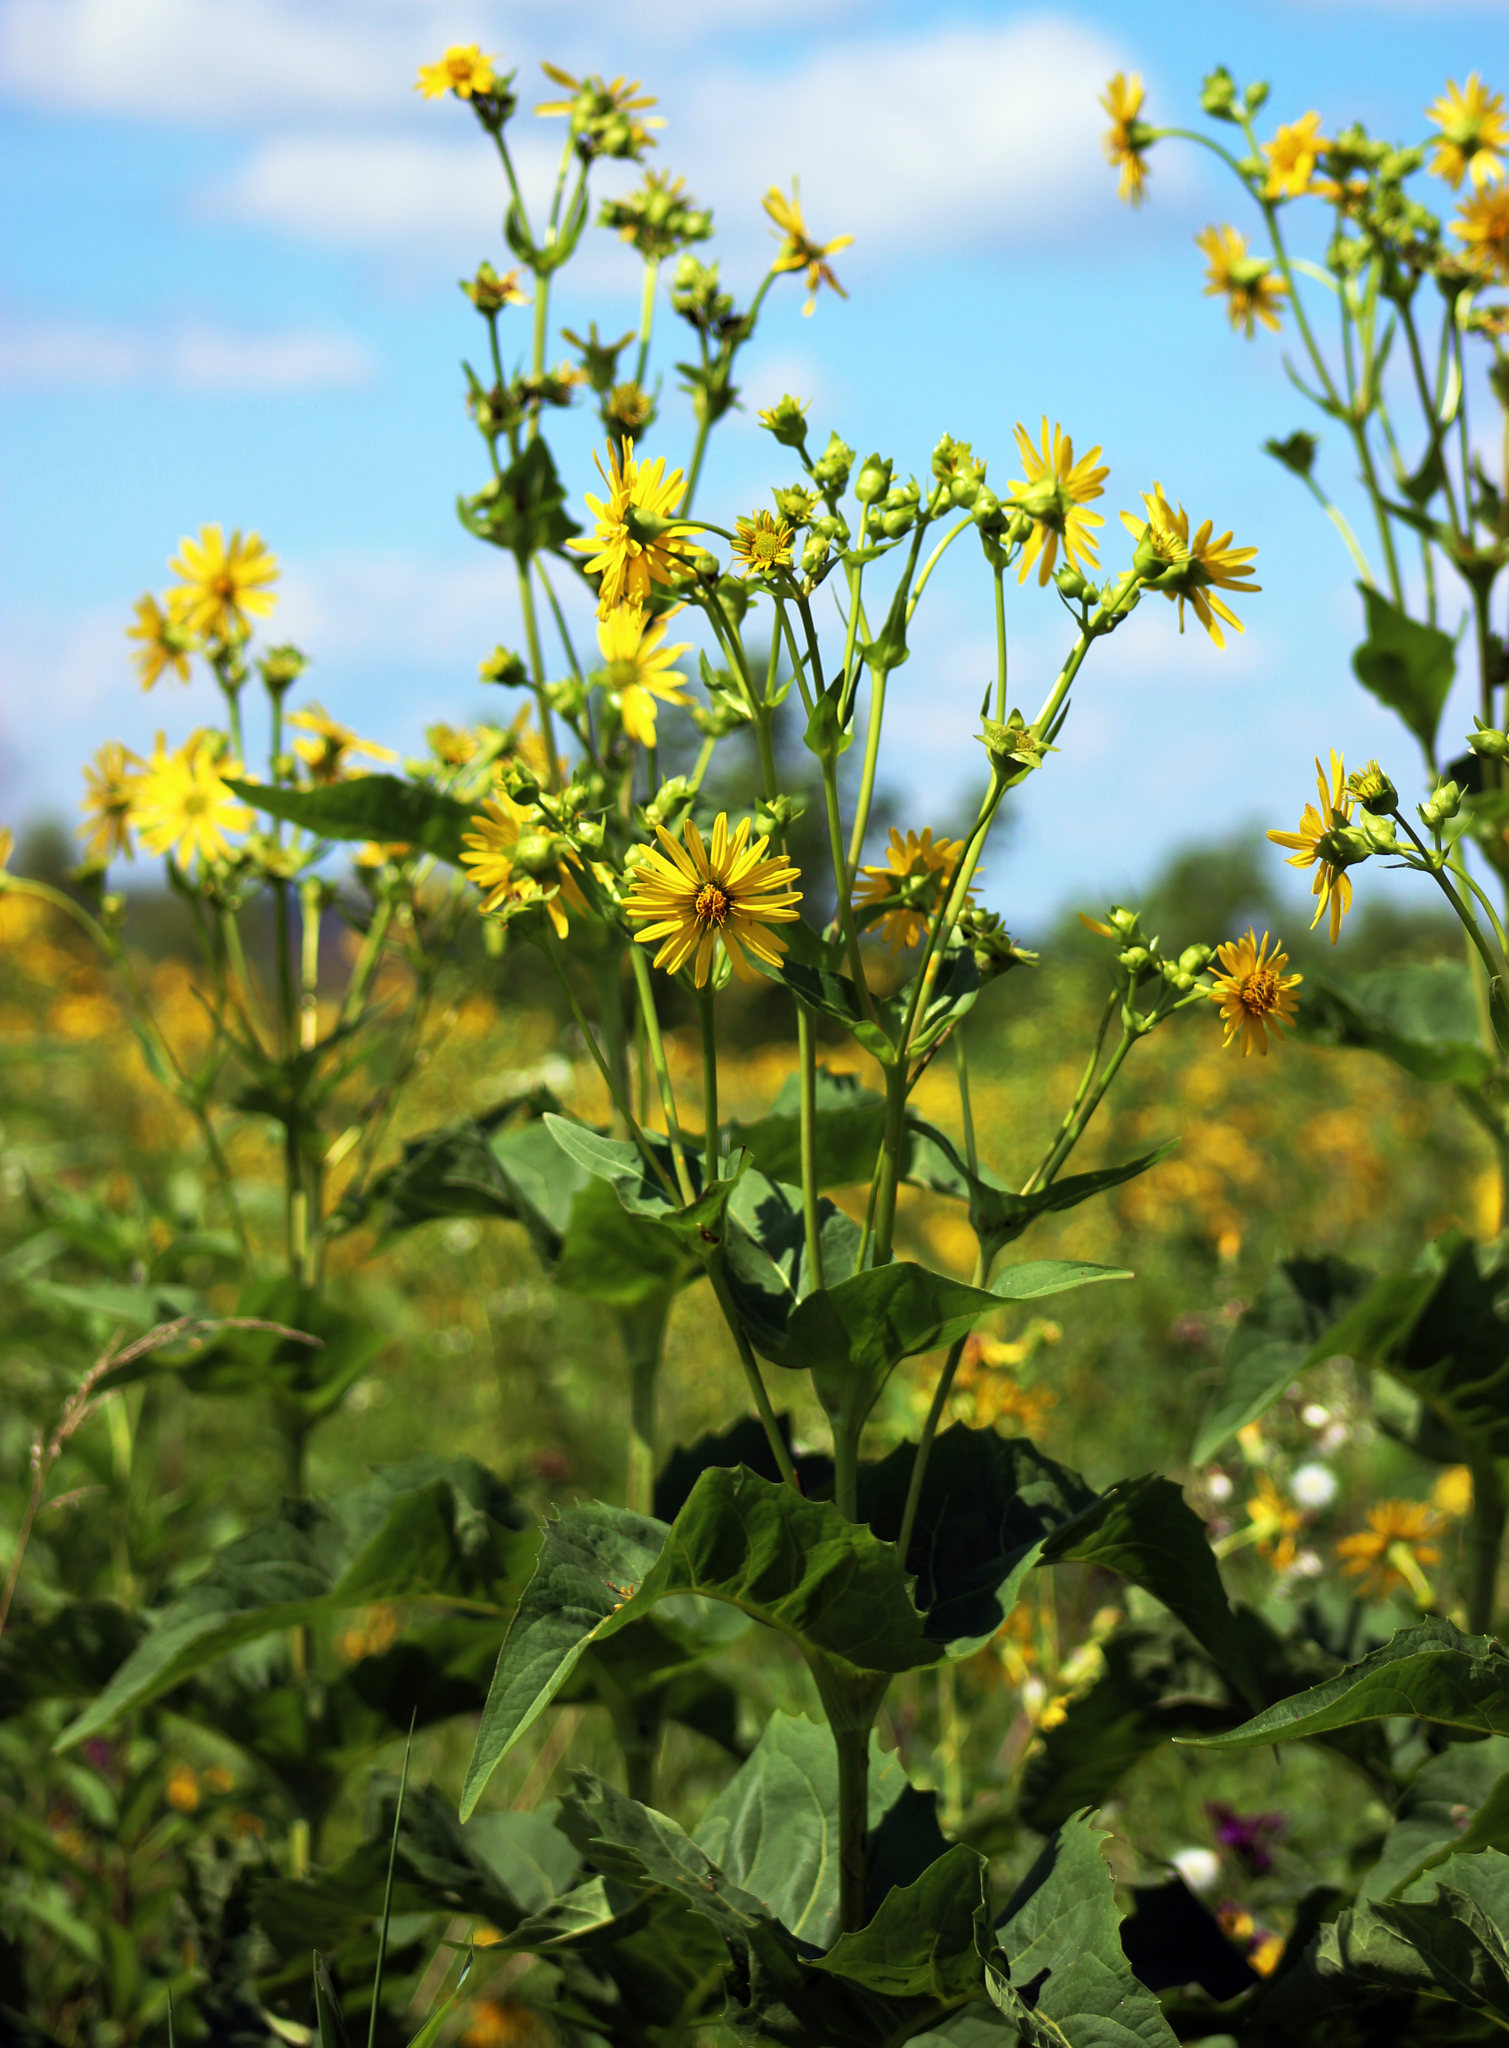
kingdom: Plantae
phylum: Tracheophyta
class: Magnoliopsida
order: Asterales
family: Asteraceae
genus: Silphium
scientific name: Silphium perfoliatum
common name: Cup-plant
